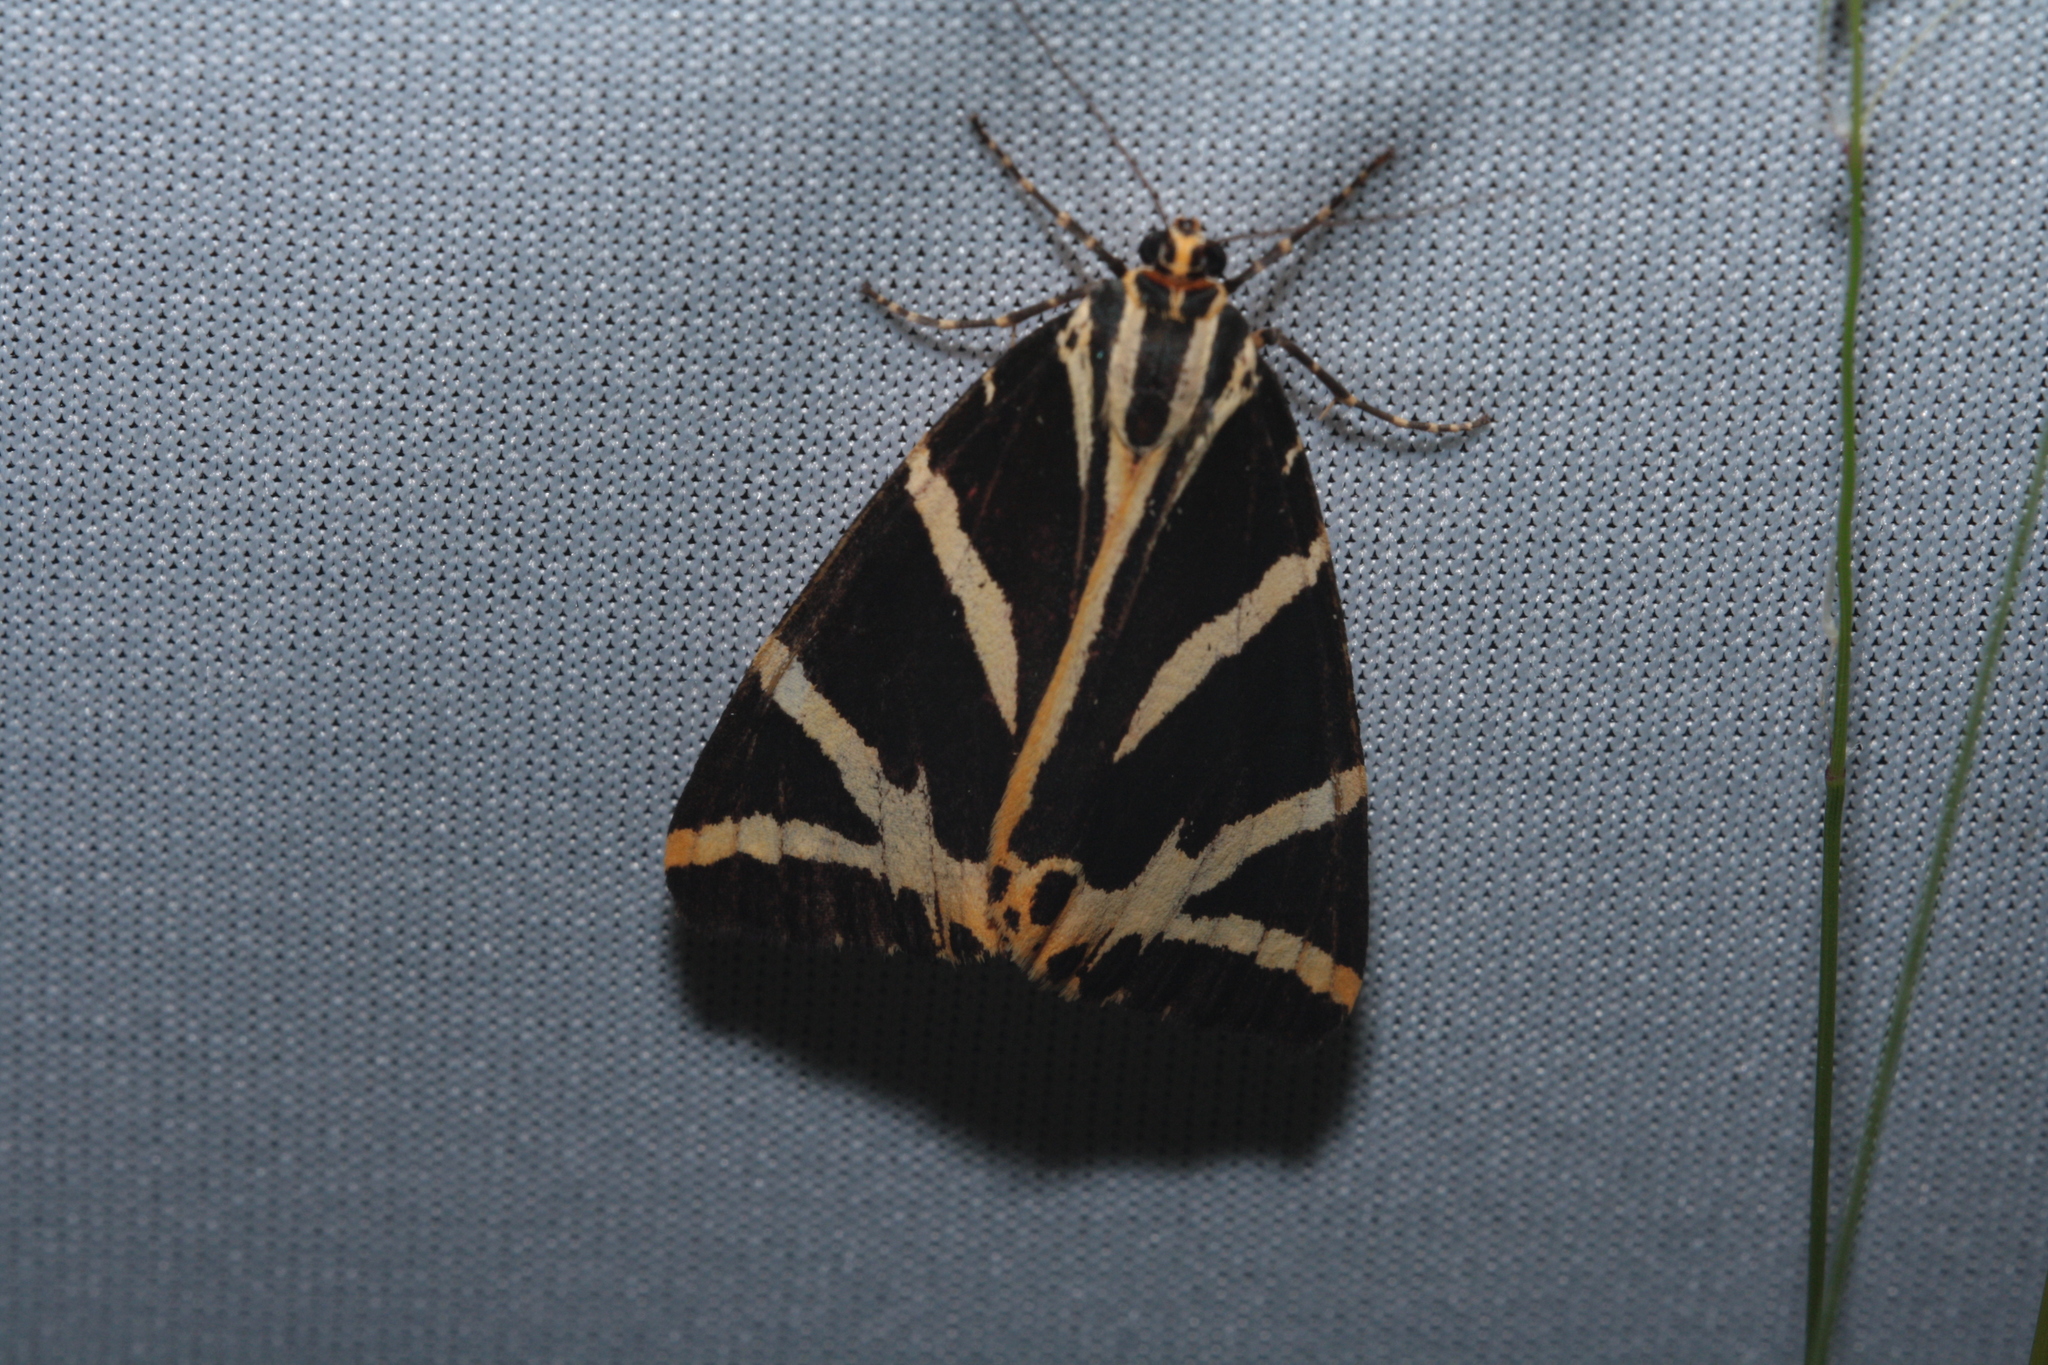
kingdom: Animalia
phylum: Arthropoda
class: Insecta
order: Lepidoptera
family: Erebidae
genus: Euplagia
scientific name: Euplagia quadripunctaria
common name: Jersey tiger
